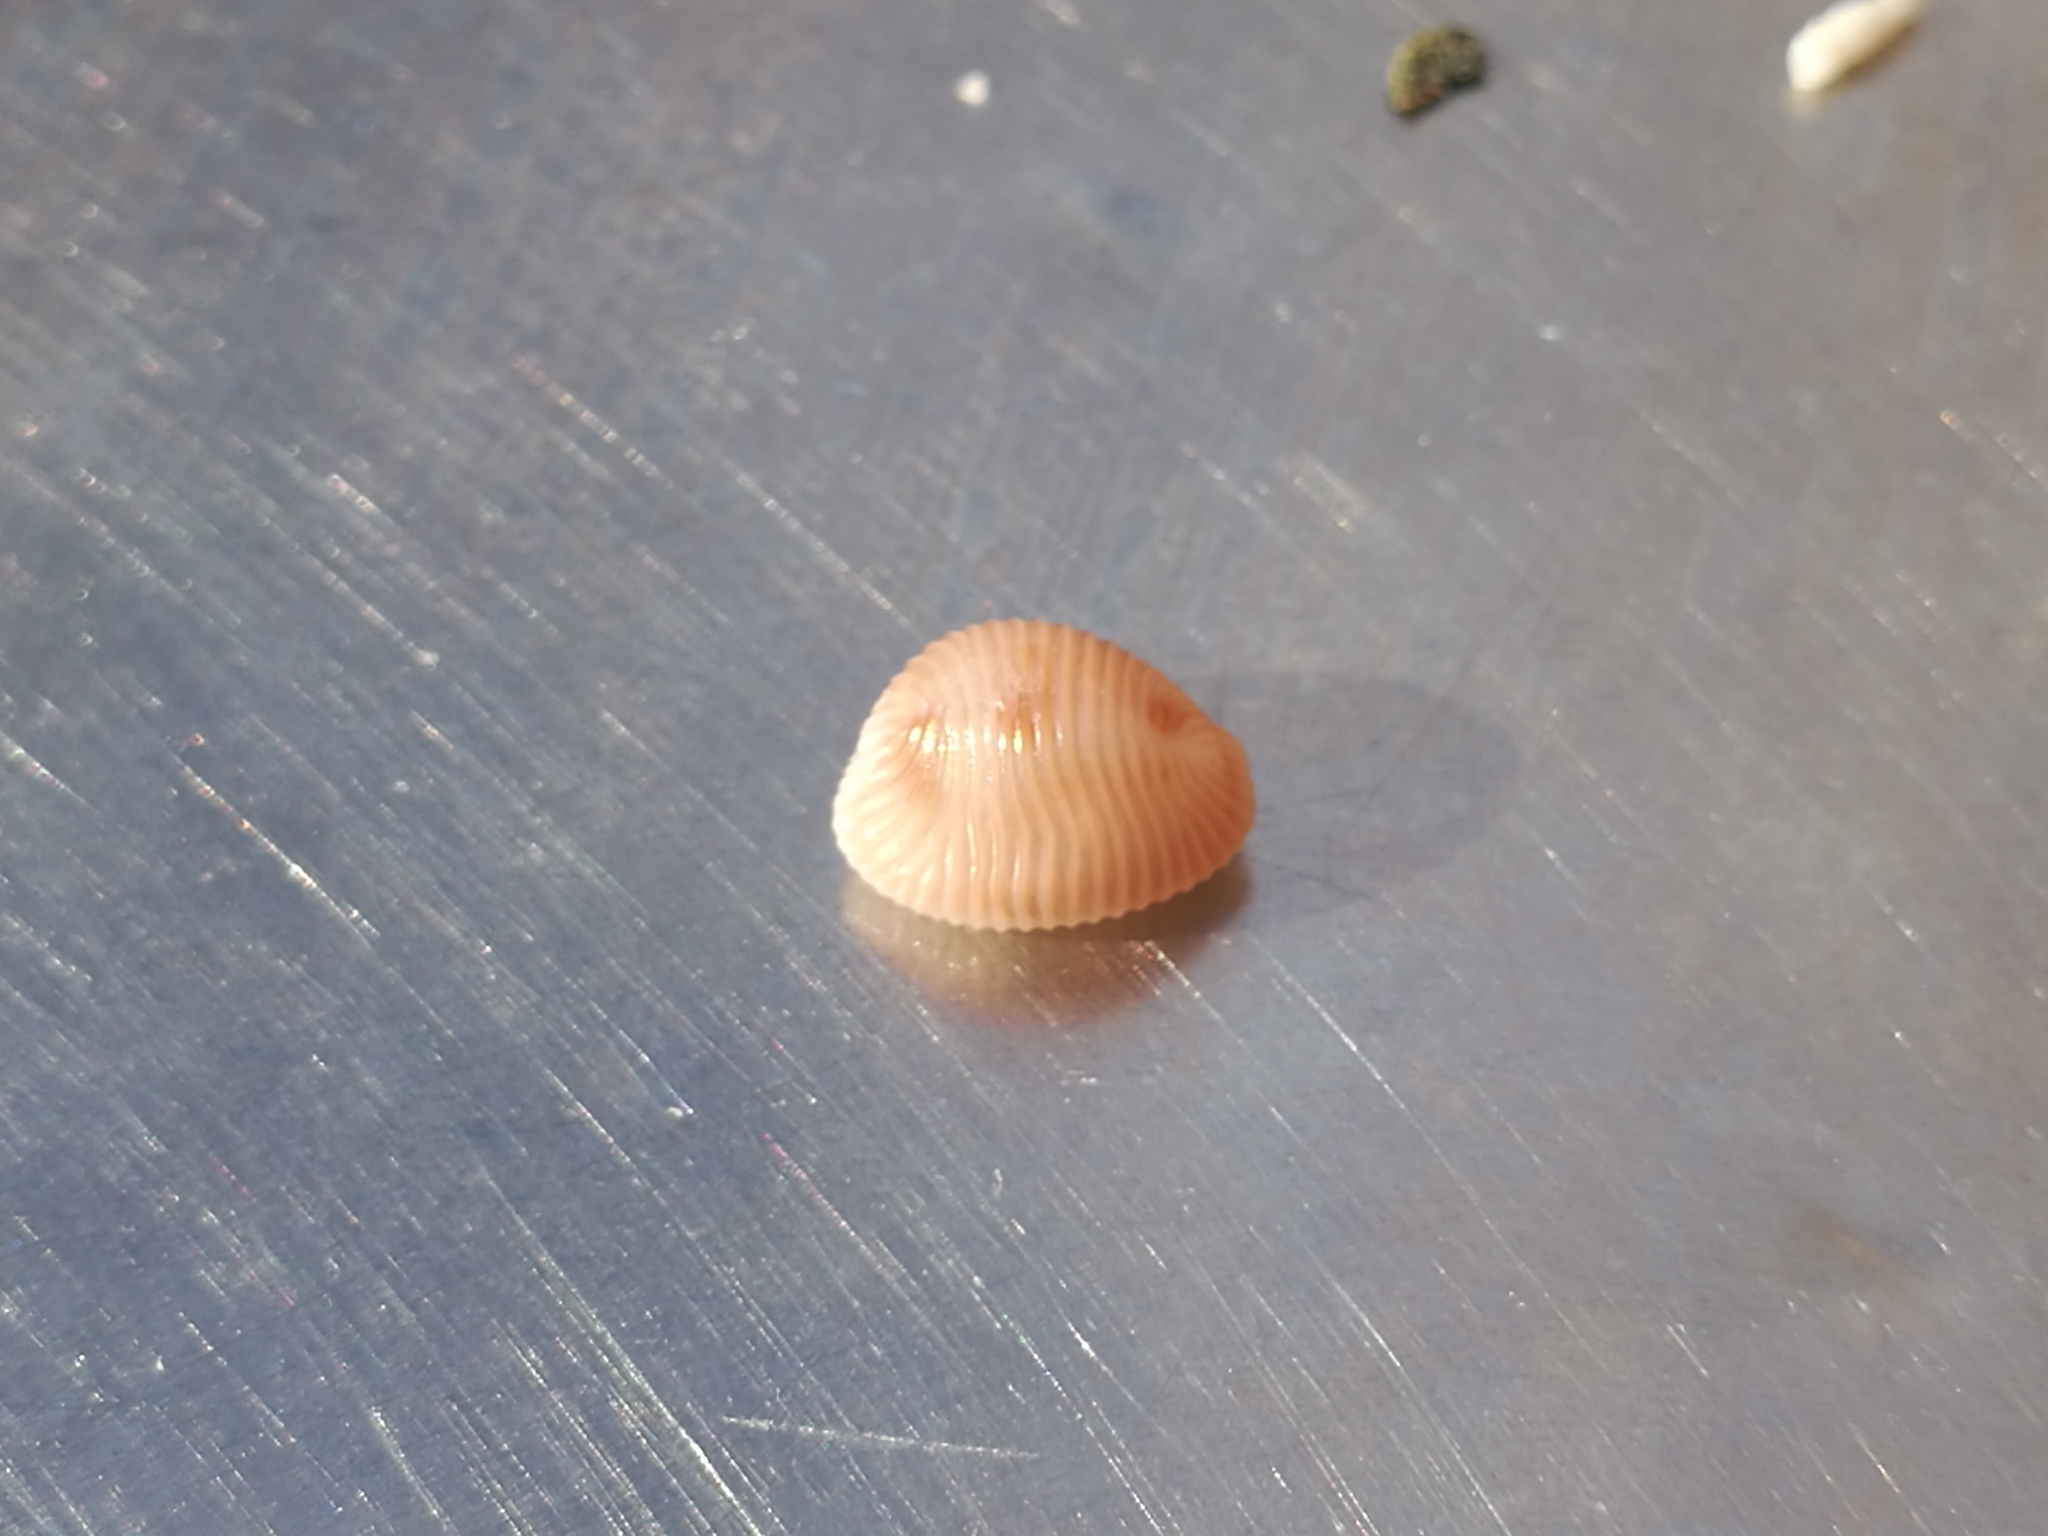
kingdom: Animalia
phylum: Mollusca
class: Gastropoda
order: Littorinimorpha
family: Triviidae
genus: Trivia
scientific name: Trivia monacha
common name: Spotted cowrie
